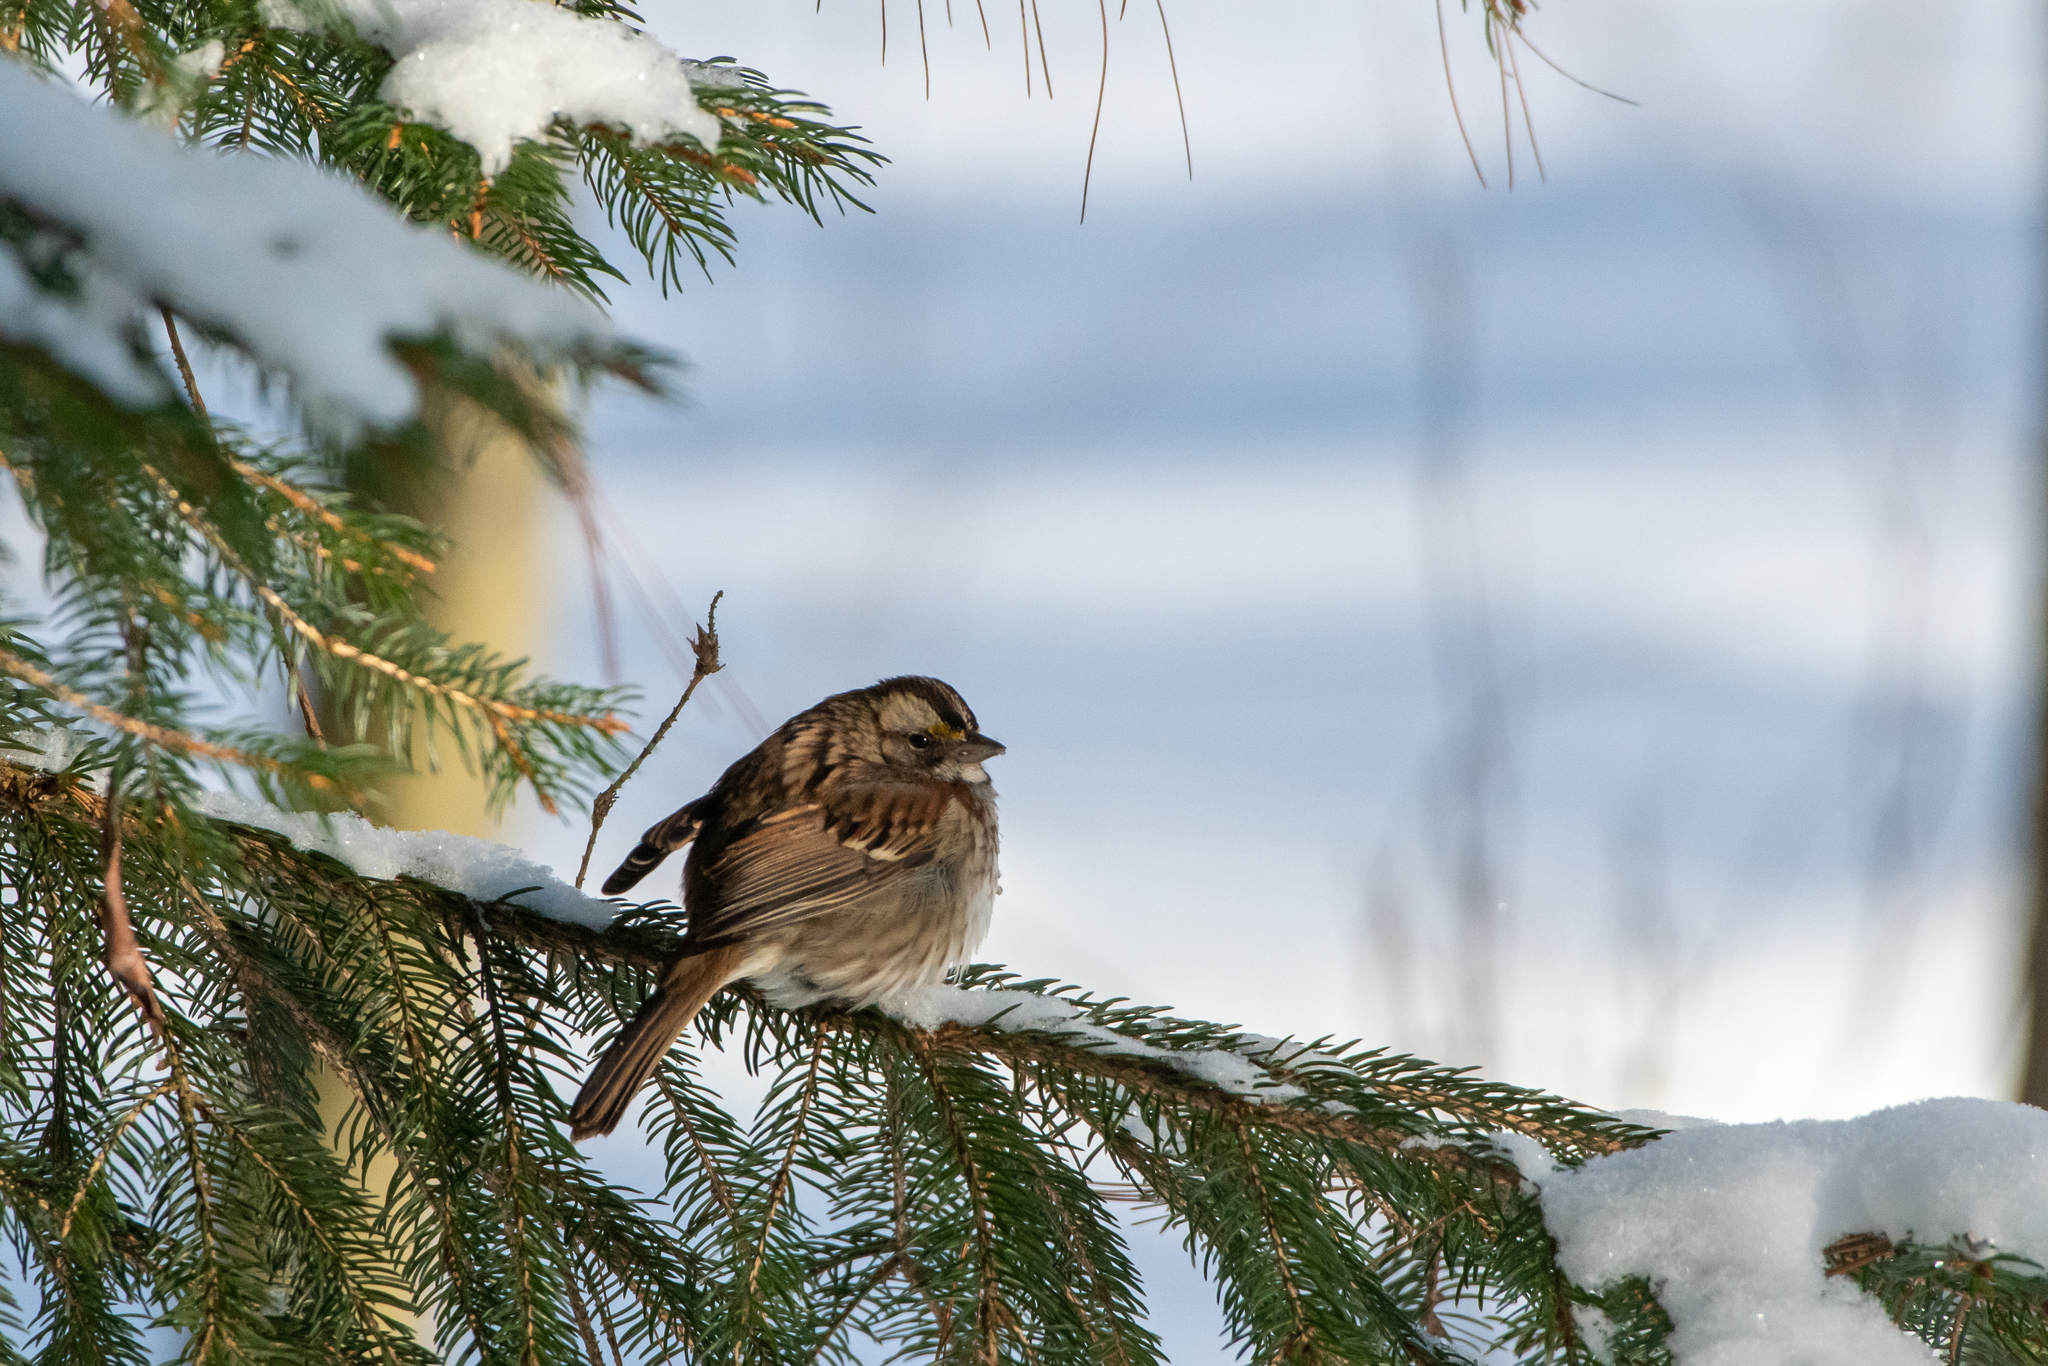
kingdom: Animalia
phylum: Chordata
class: Aves
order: Passeriformes
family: Passerellidae
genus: Zonotrichia
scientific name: Zonotrichia albicollis
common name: White-throated sparrow
